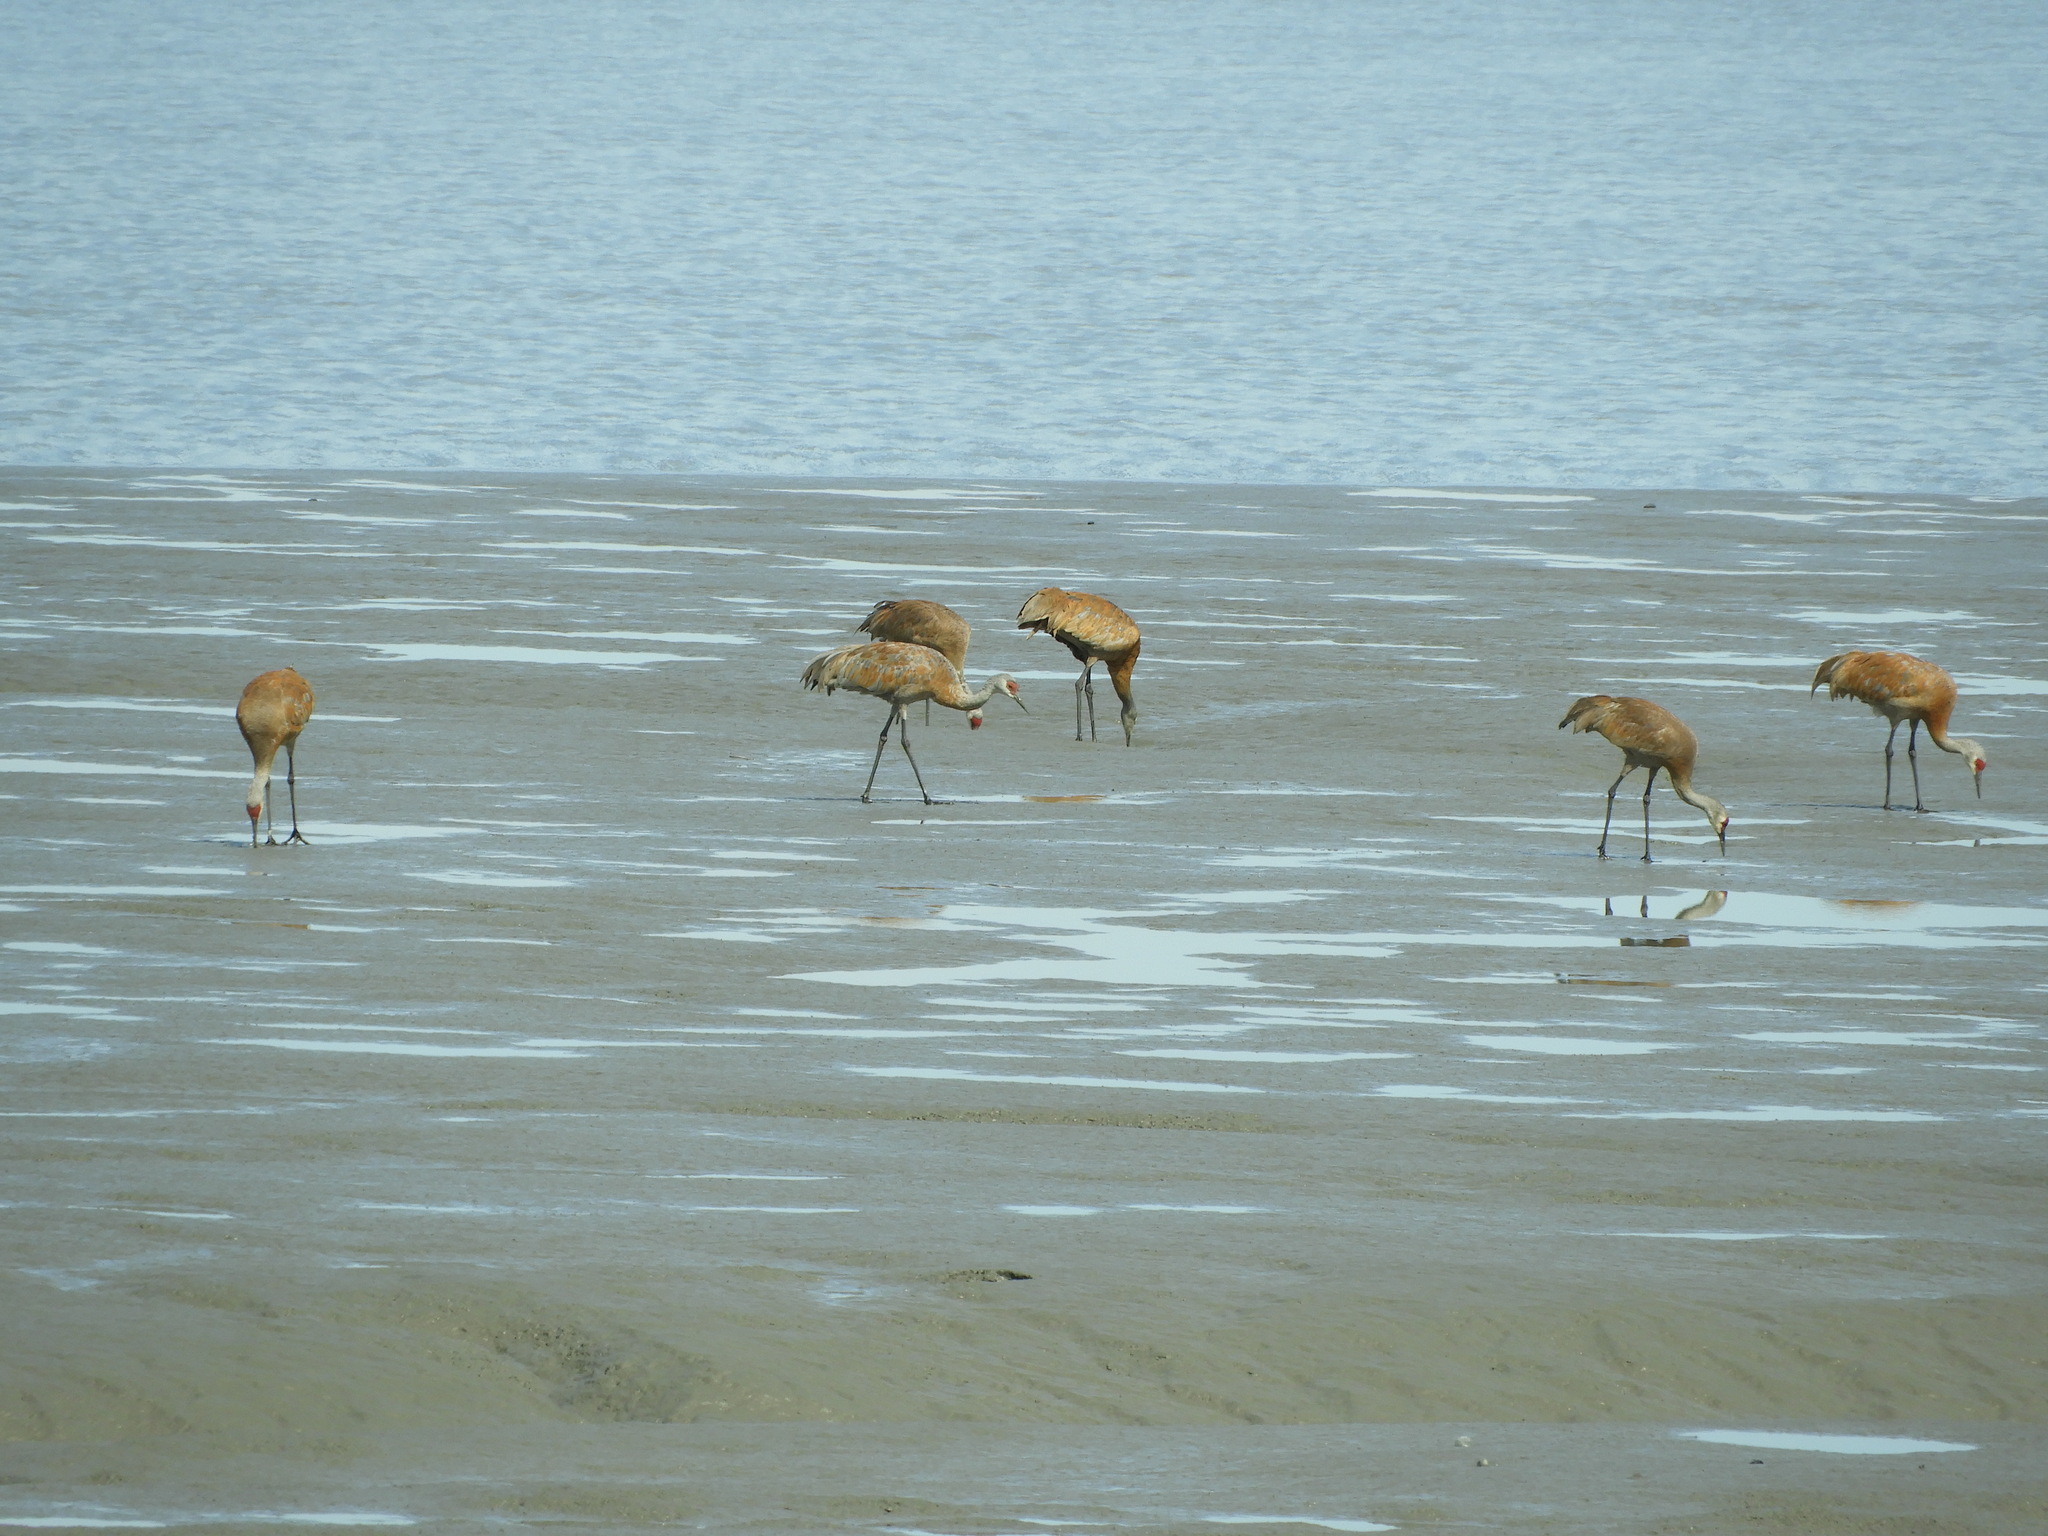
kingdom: Animalia
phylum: Chordata
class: Aves
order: Gruiformes
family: Gruidae
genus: Grus
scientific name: Grus canadensis
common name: Sandhill crane
